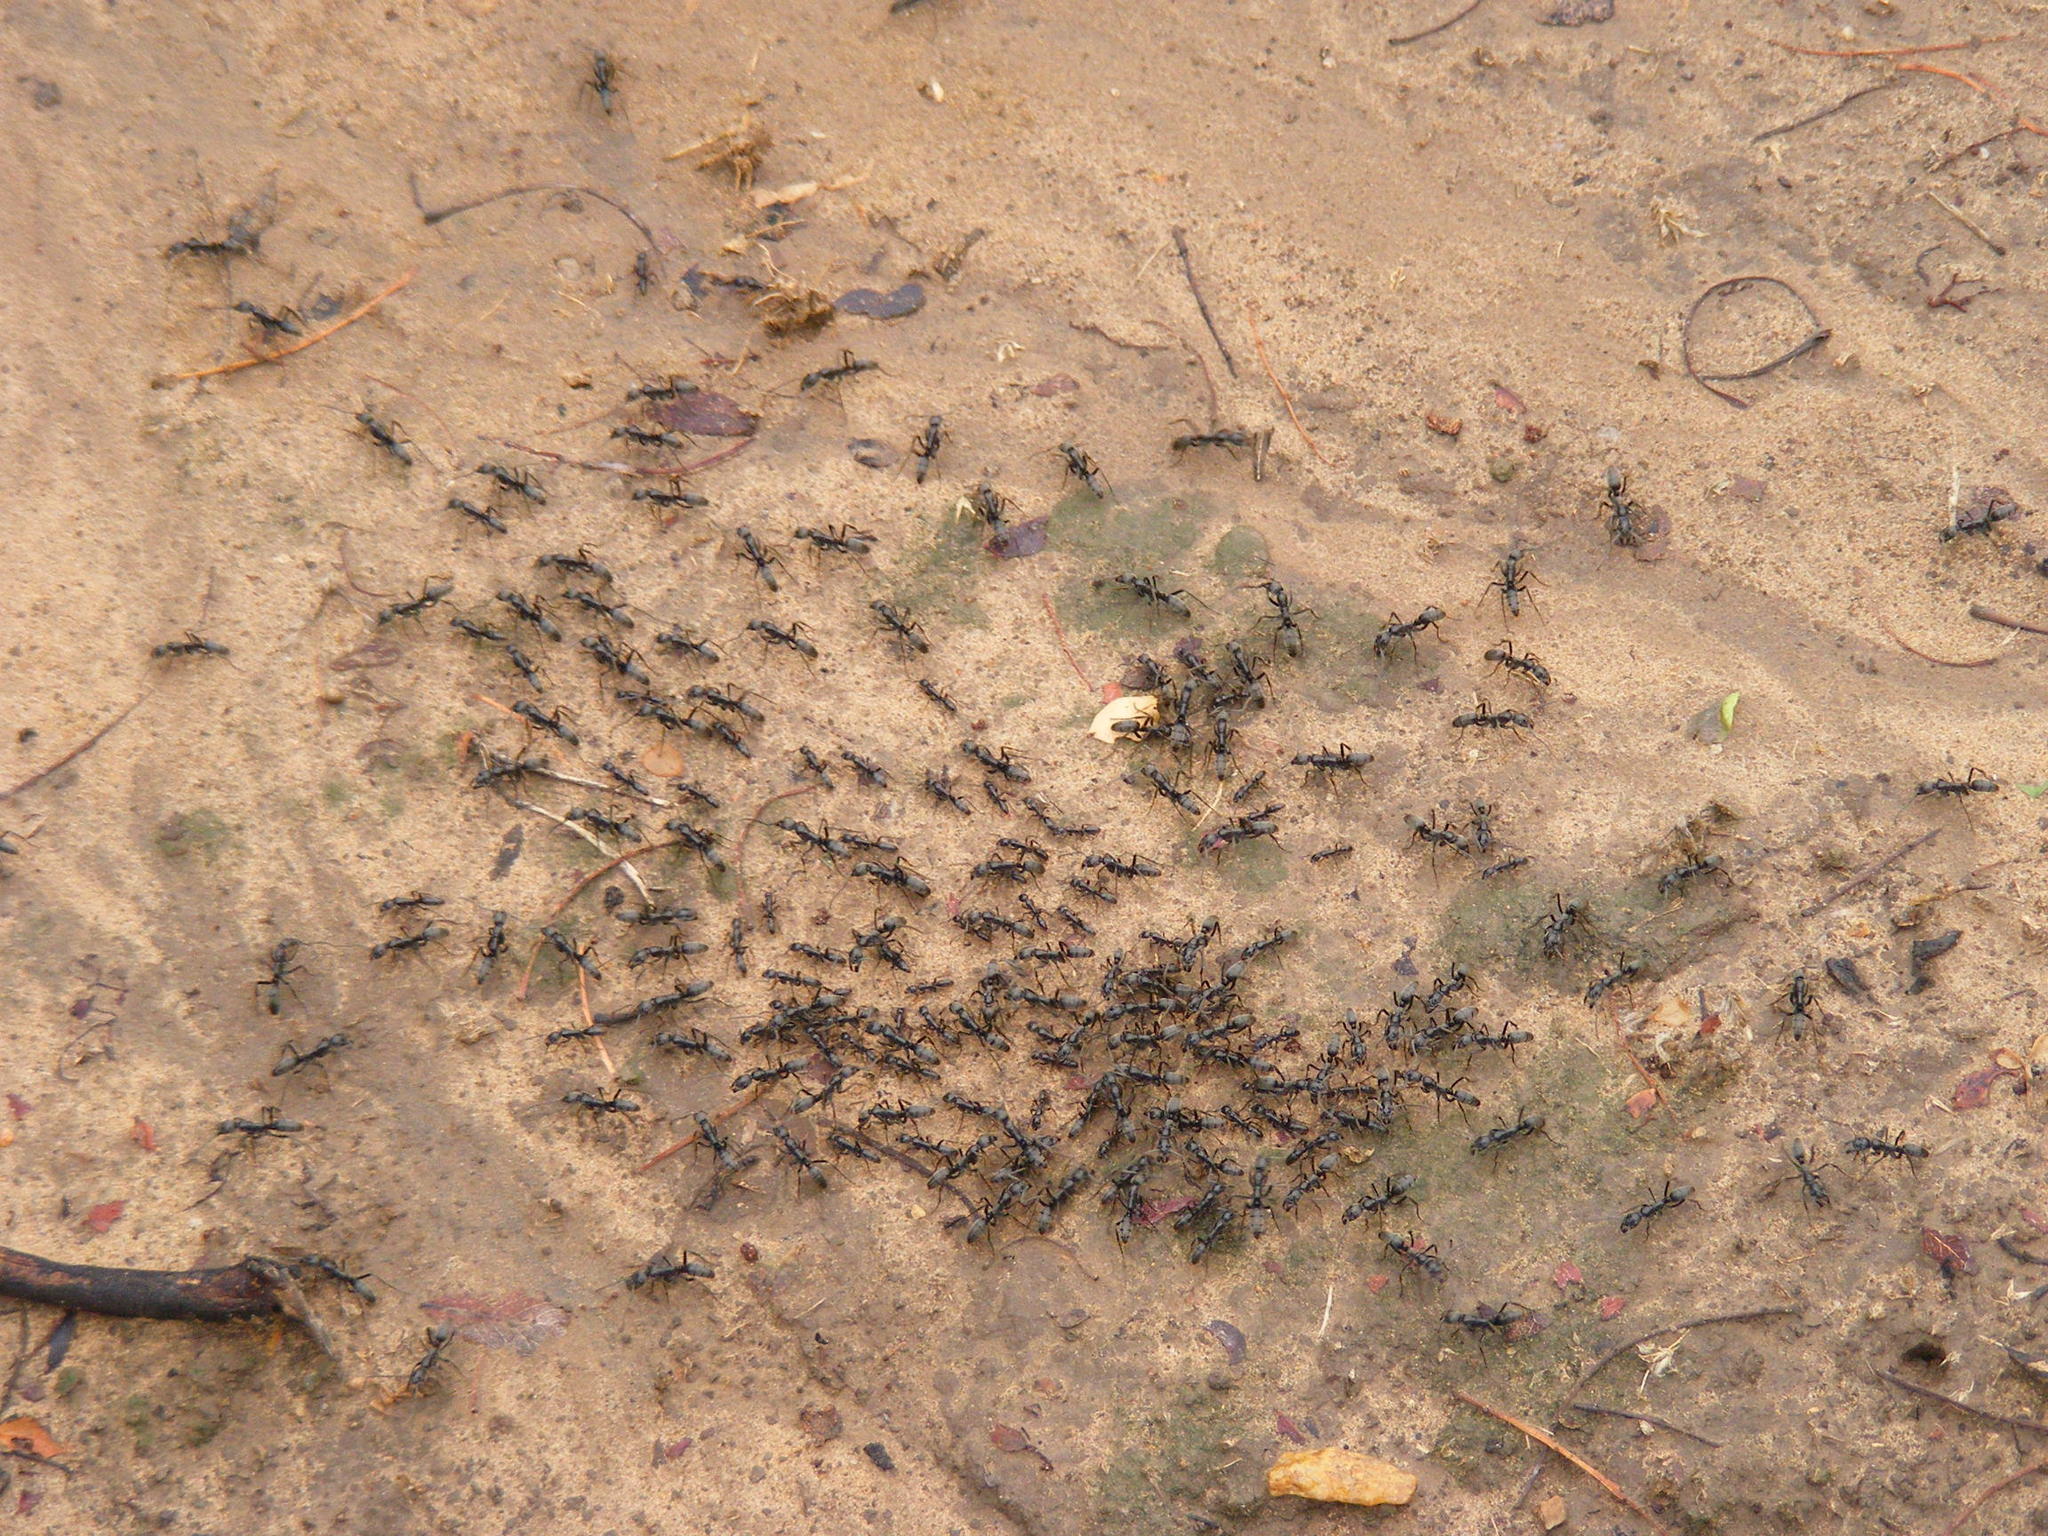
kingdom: Animalia
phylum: Arthropoda
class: Insecta
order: Hymenoptera
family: Formicidae
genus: Megaponera
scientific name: Megaponera analis
